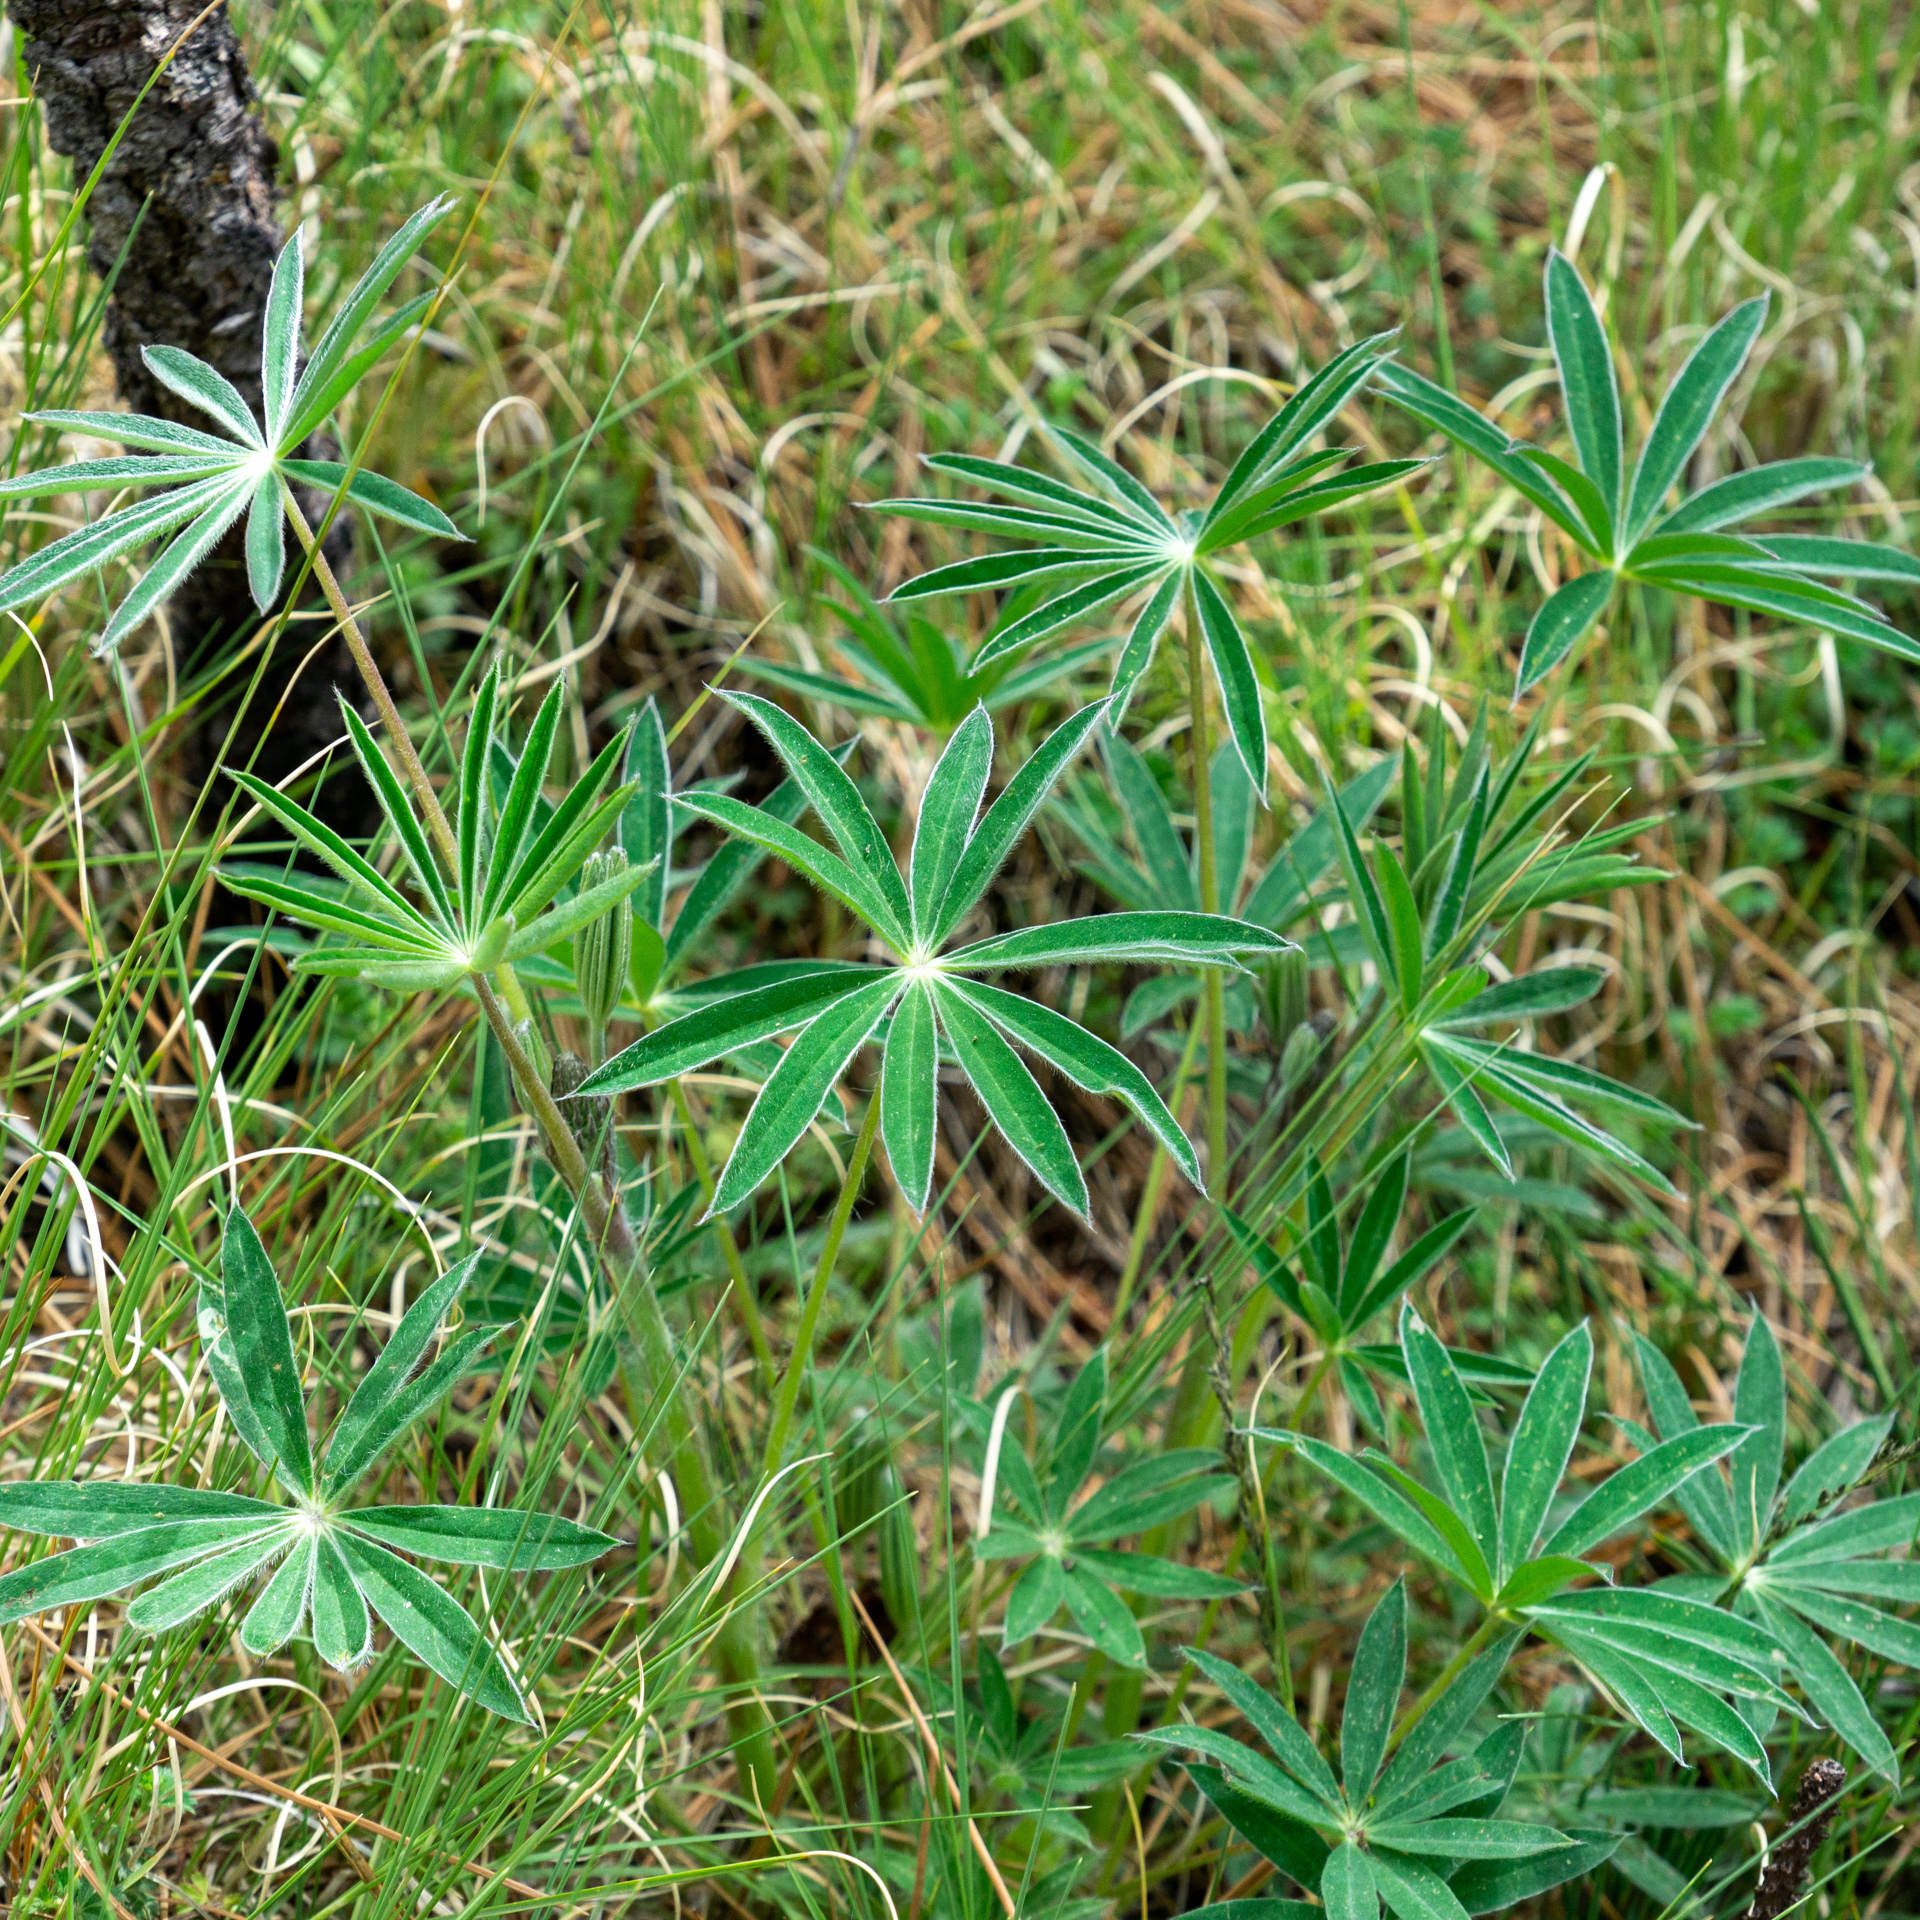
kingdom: Plantae
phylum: Tracheophyta
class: Magnoliopsida
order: Fabales
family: Fabaceae
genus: Lupinus
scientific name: Lupinus
